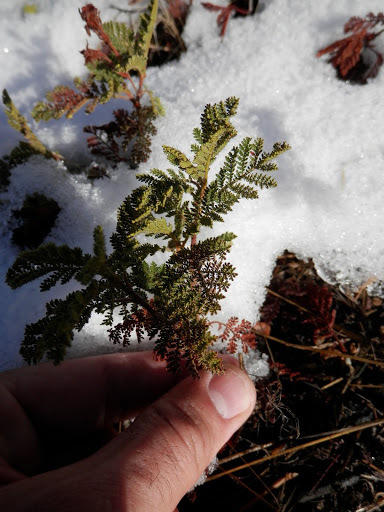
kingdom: Plantae
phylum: Tracheophyta
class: Magnoliopsida
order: Rosales
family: Rosaceae
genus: Chamaebatia
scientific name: Chamaebatia foliolosa
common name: Mountain misery
